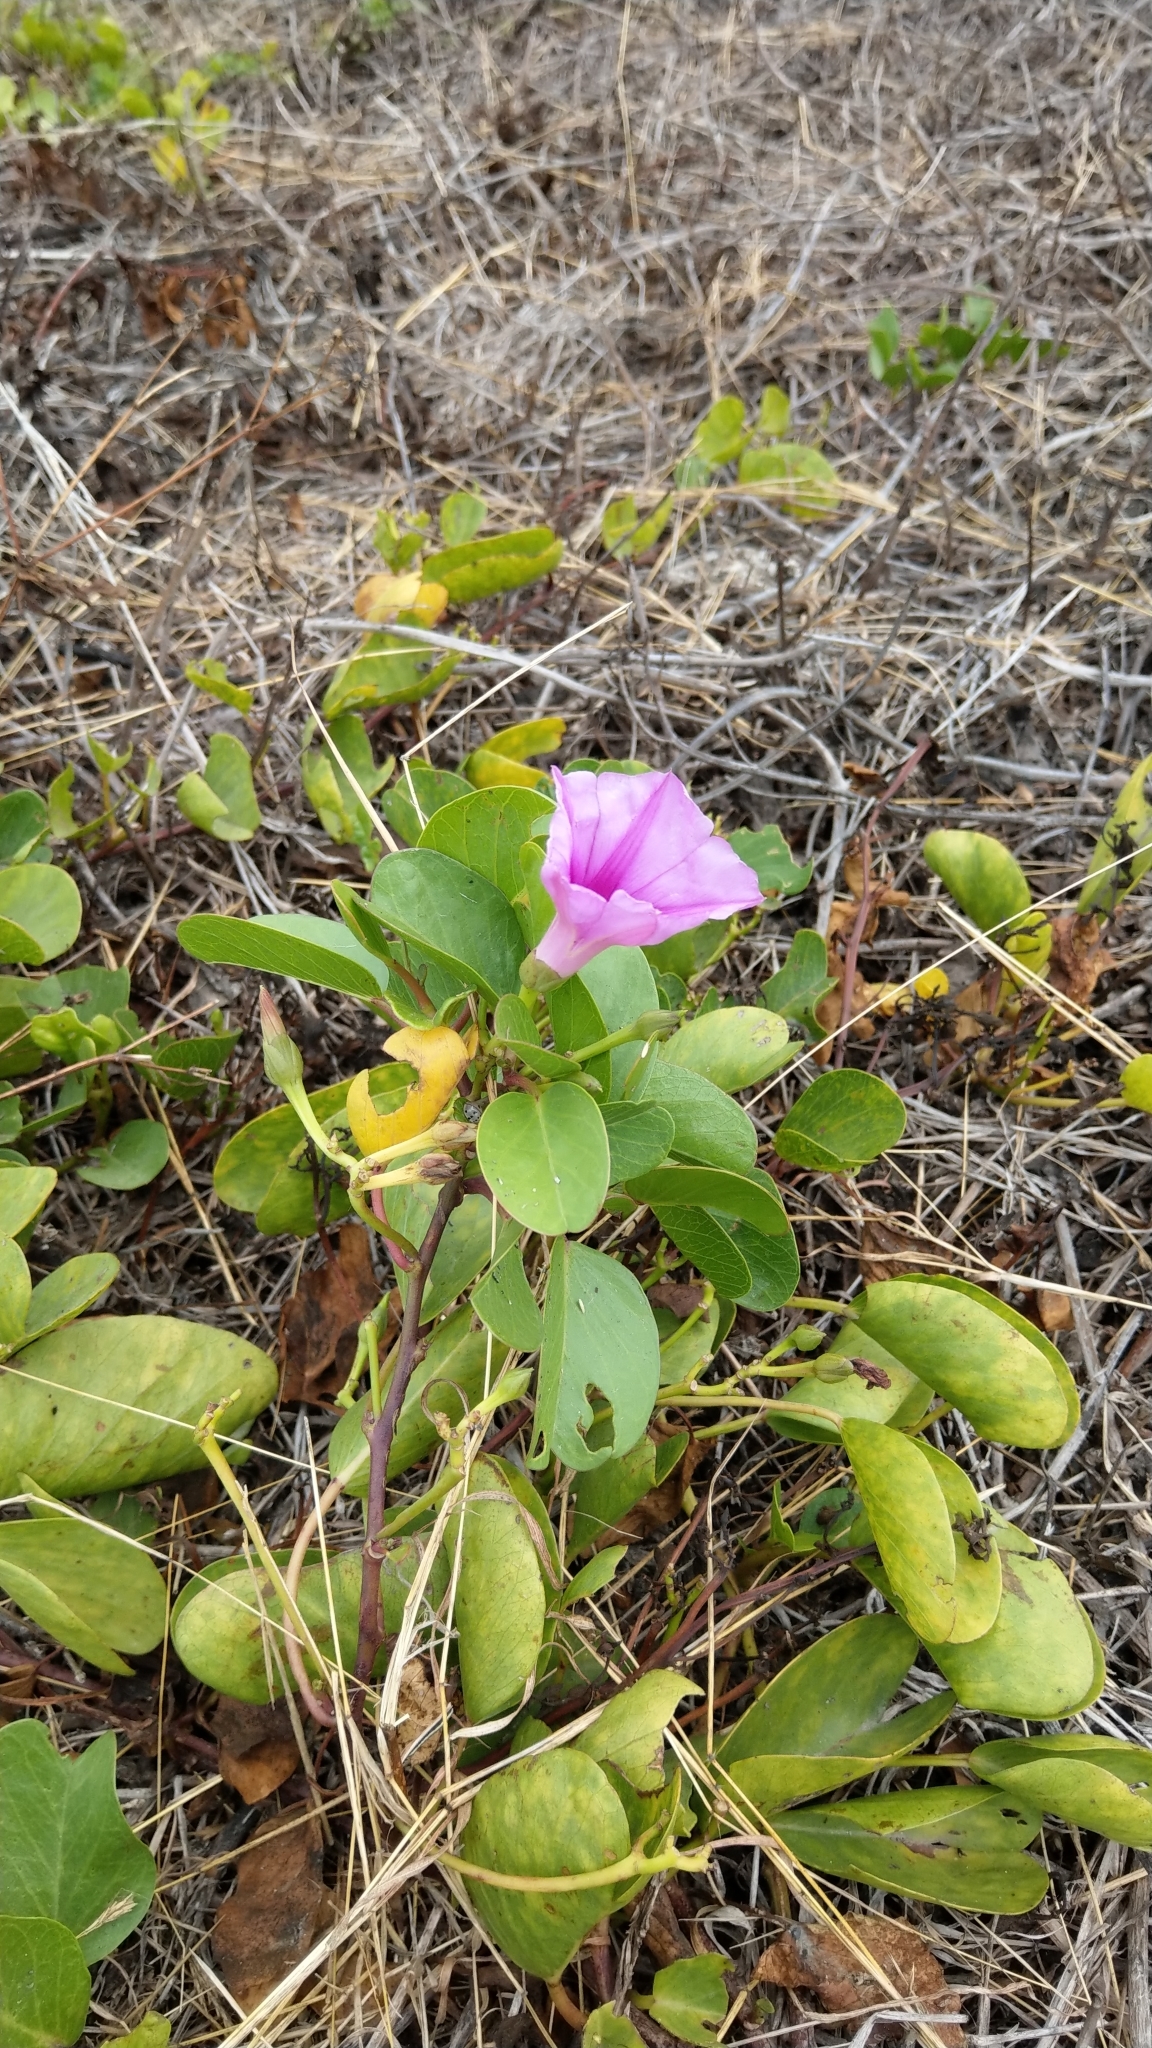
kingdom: Plantae
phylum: Tracheophyta
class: Magnoliopsida
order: Solanales
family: Convolvulaceae
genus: Ipomoea
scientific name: Ipomoea pes-caprae
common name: Beach morning glory
